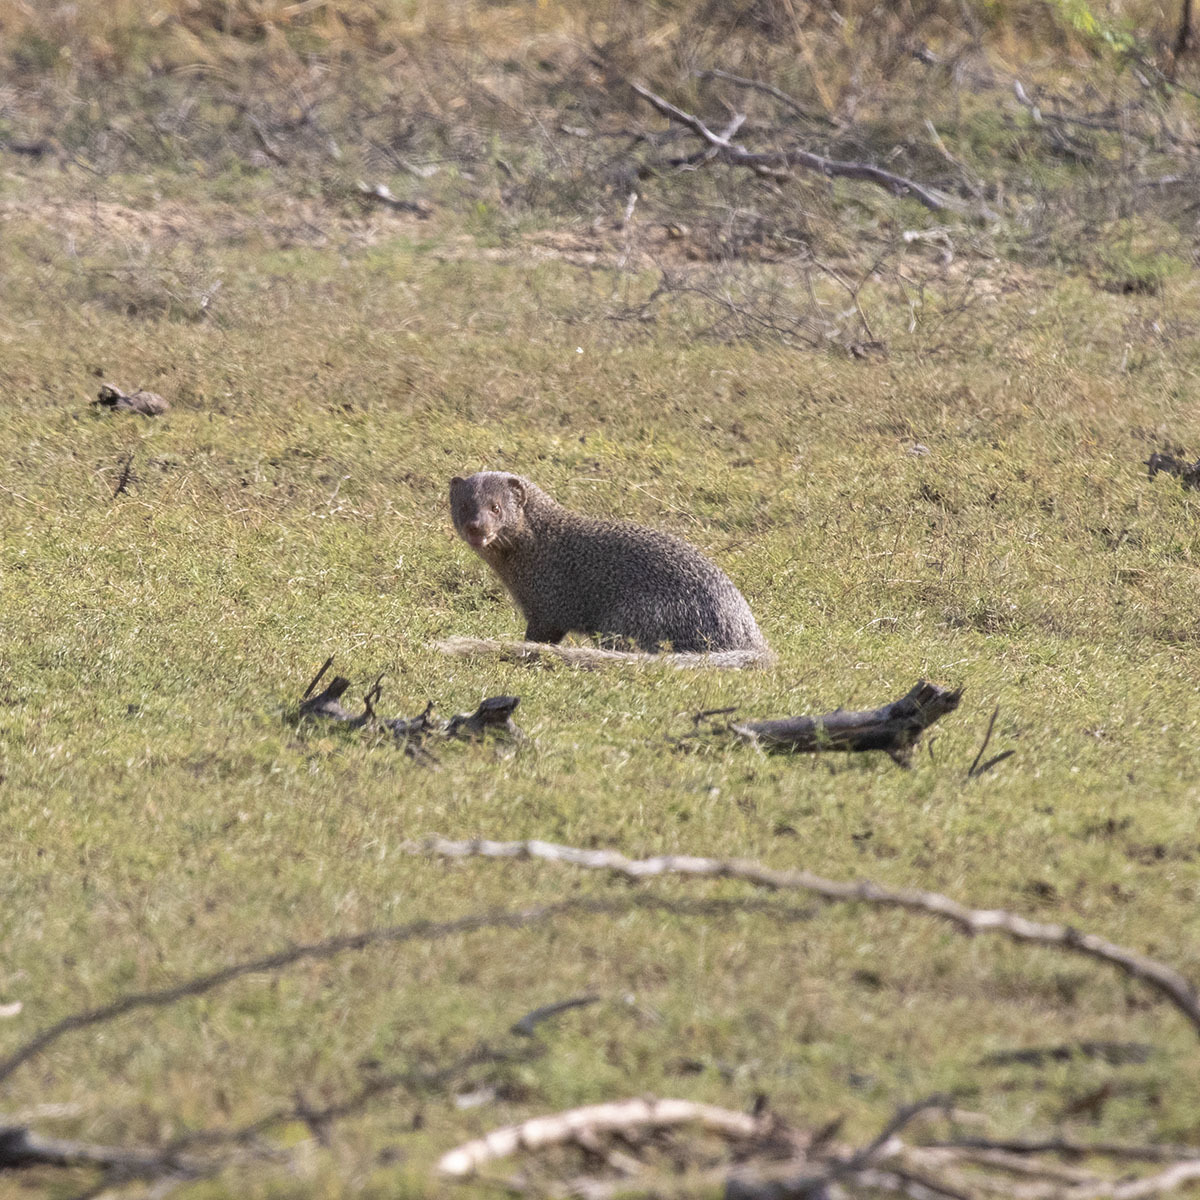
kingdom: Animalia
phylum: Chordata
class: Mammalia
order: Carnivora
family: Herpestidae
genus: Herpestes
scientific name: Herpestes edwardsi
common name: Indian gray mongoose
